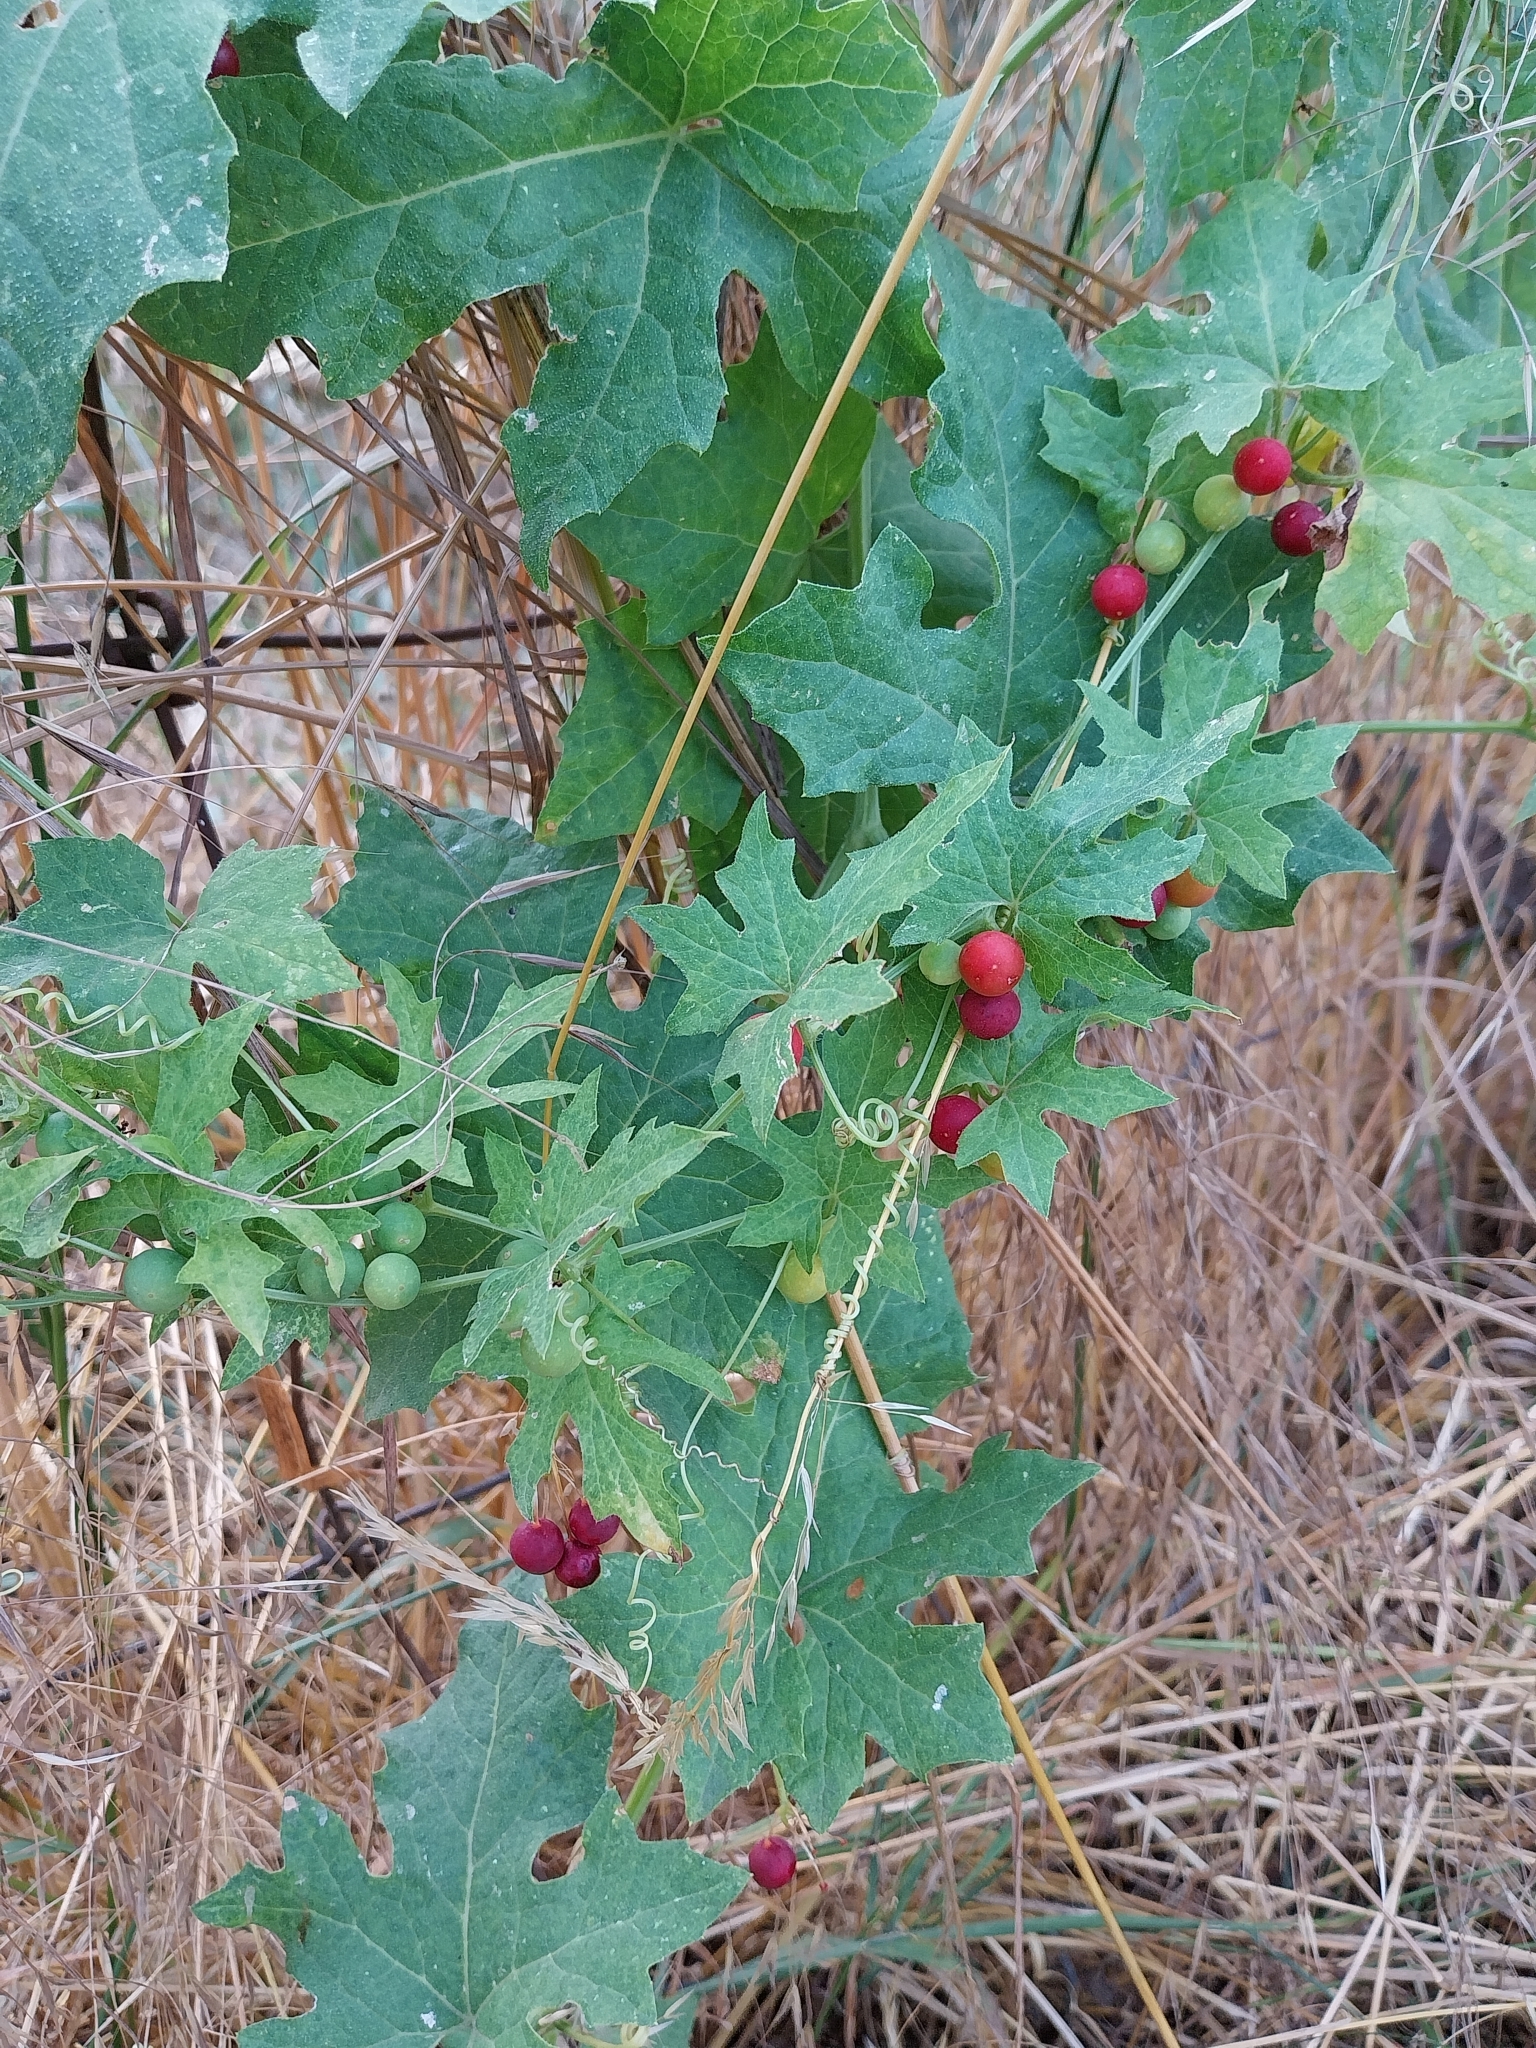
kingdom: Plantae
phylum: Tracheophyta
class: Magnoliopsida
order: Cucurbitales
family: Cucurbitaceae
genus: Bryonia
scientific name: Bryonia cretica
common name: Cretan bryony
